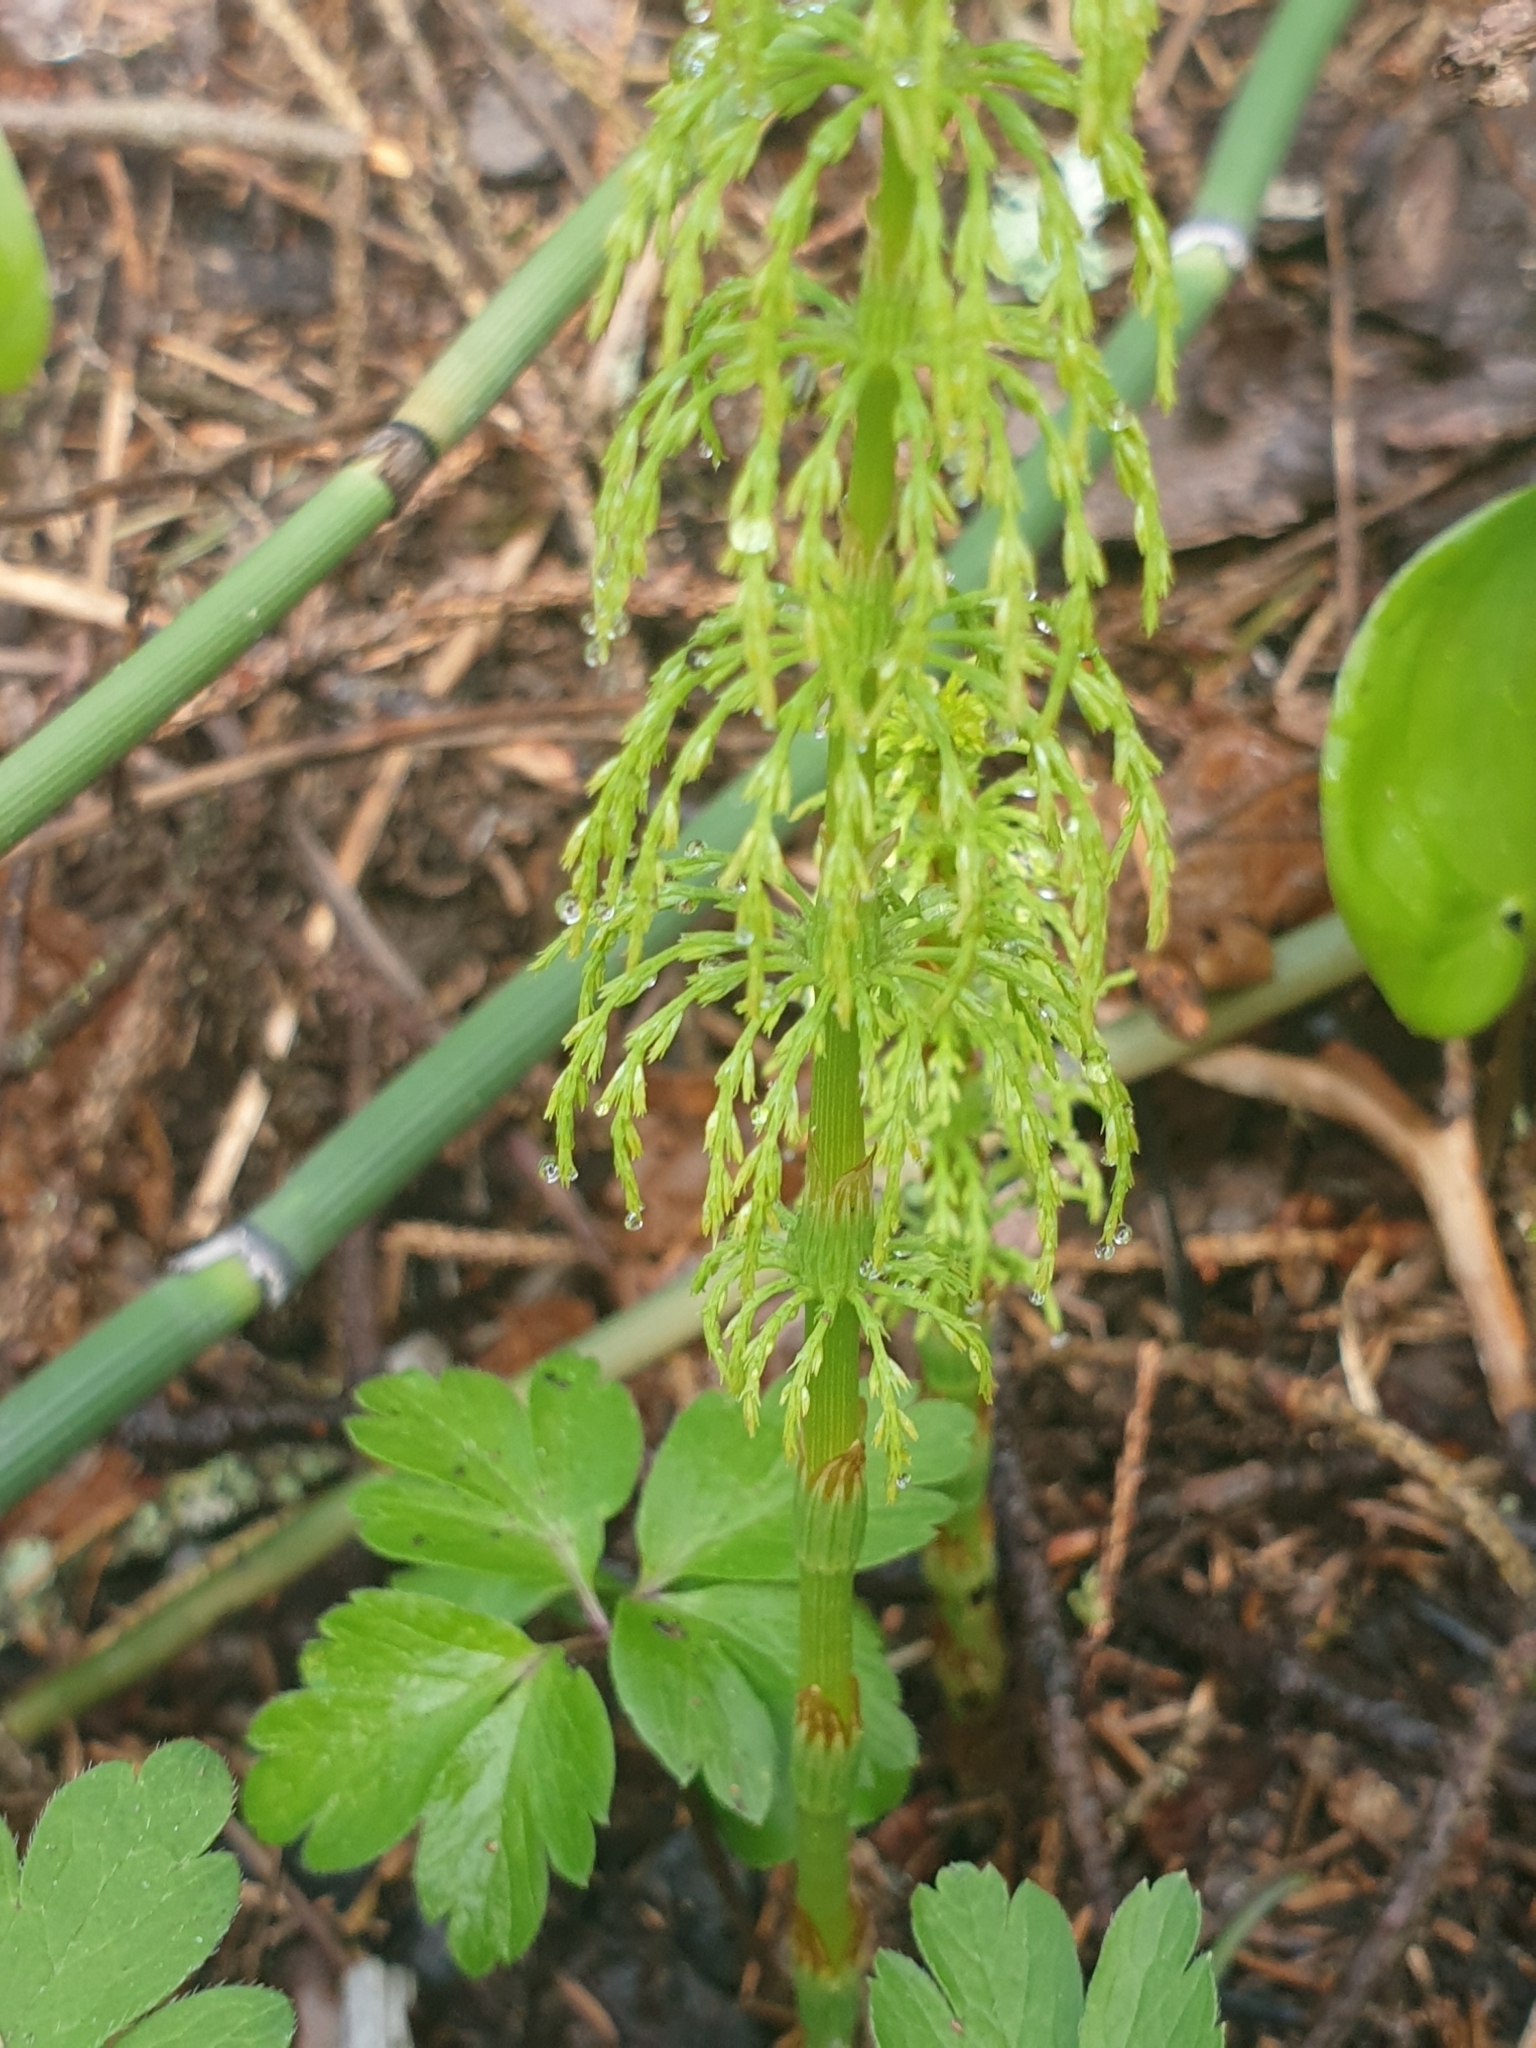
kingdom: Plantae
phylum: Tracheophyta
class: Polypodiopsida
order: Equisetales
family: Equisetaceae
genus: Equisetum
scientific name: Equisetum sylvaticum
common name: Wood horsetail
